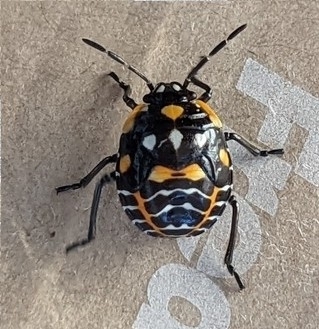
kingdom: Animalia
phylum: Arthropoda
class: Insecta
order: Hemiptera
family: Pentatomidae
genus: Murgantia
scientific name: Murgantia histrionica
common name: Harlequin bug
